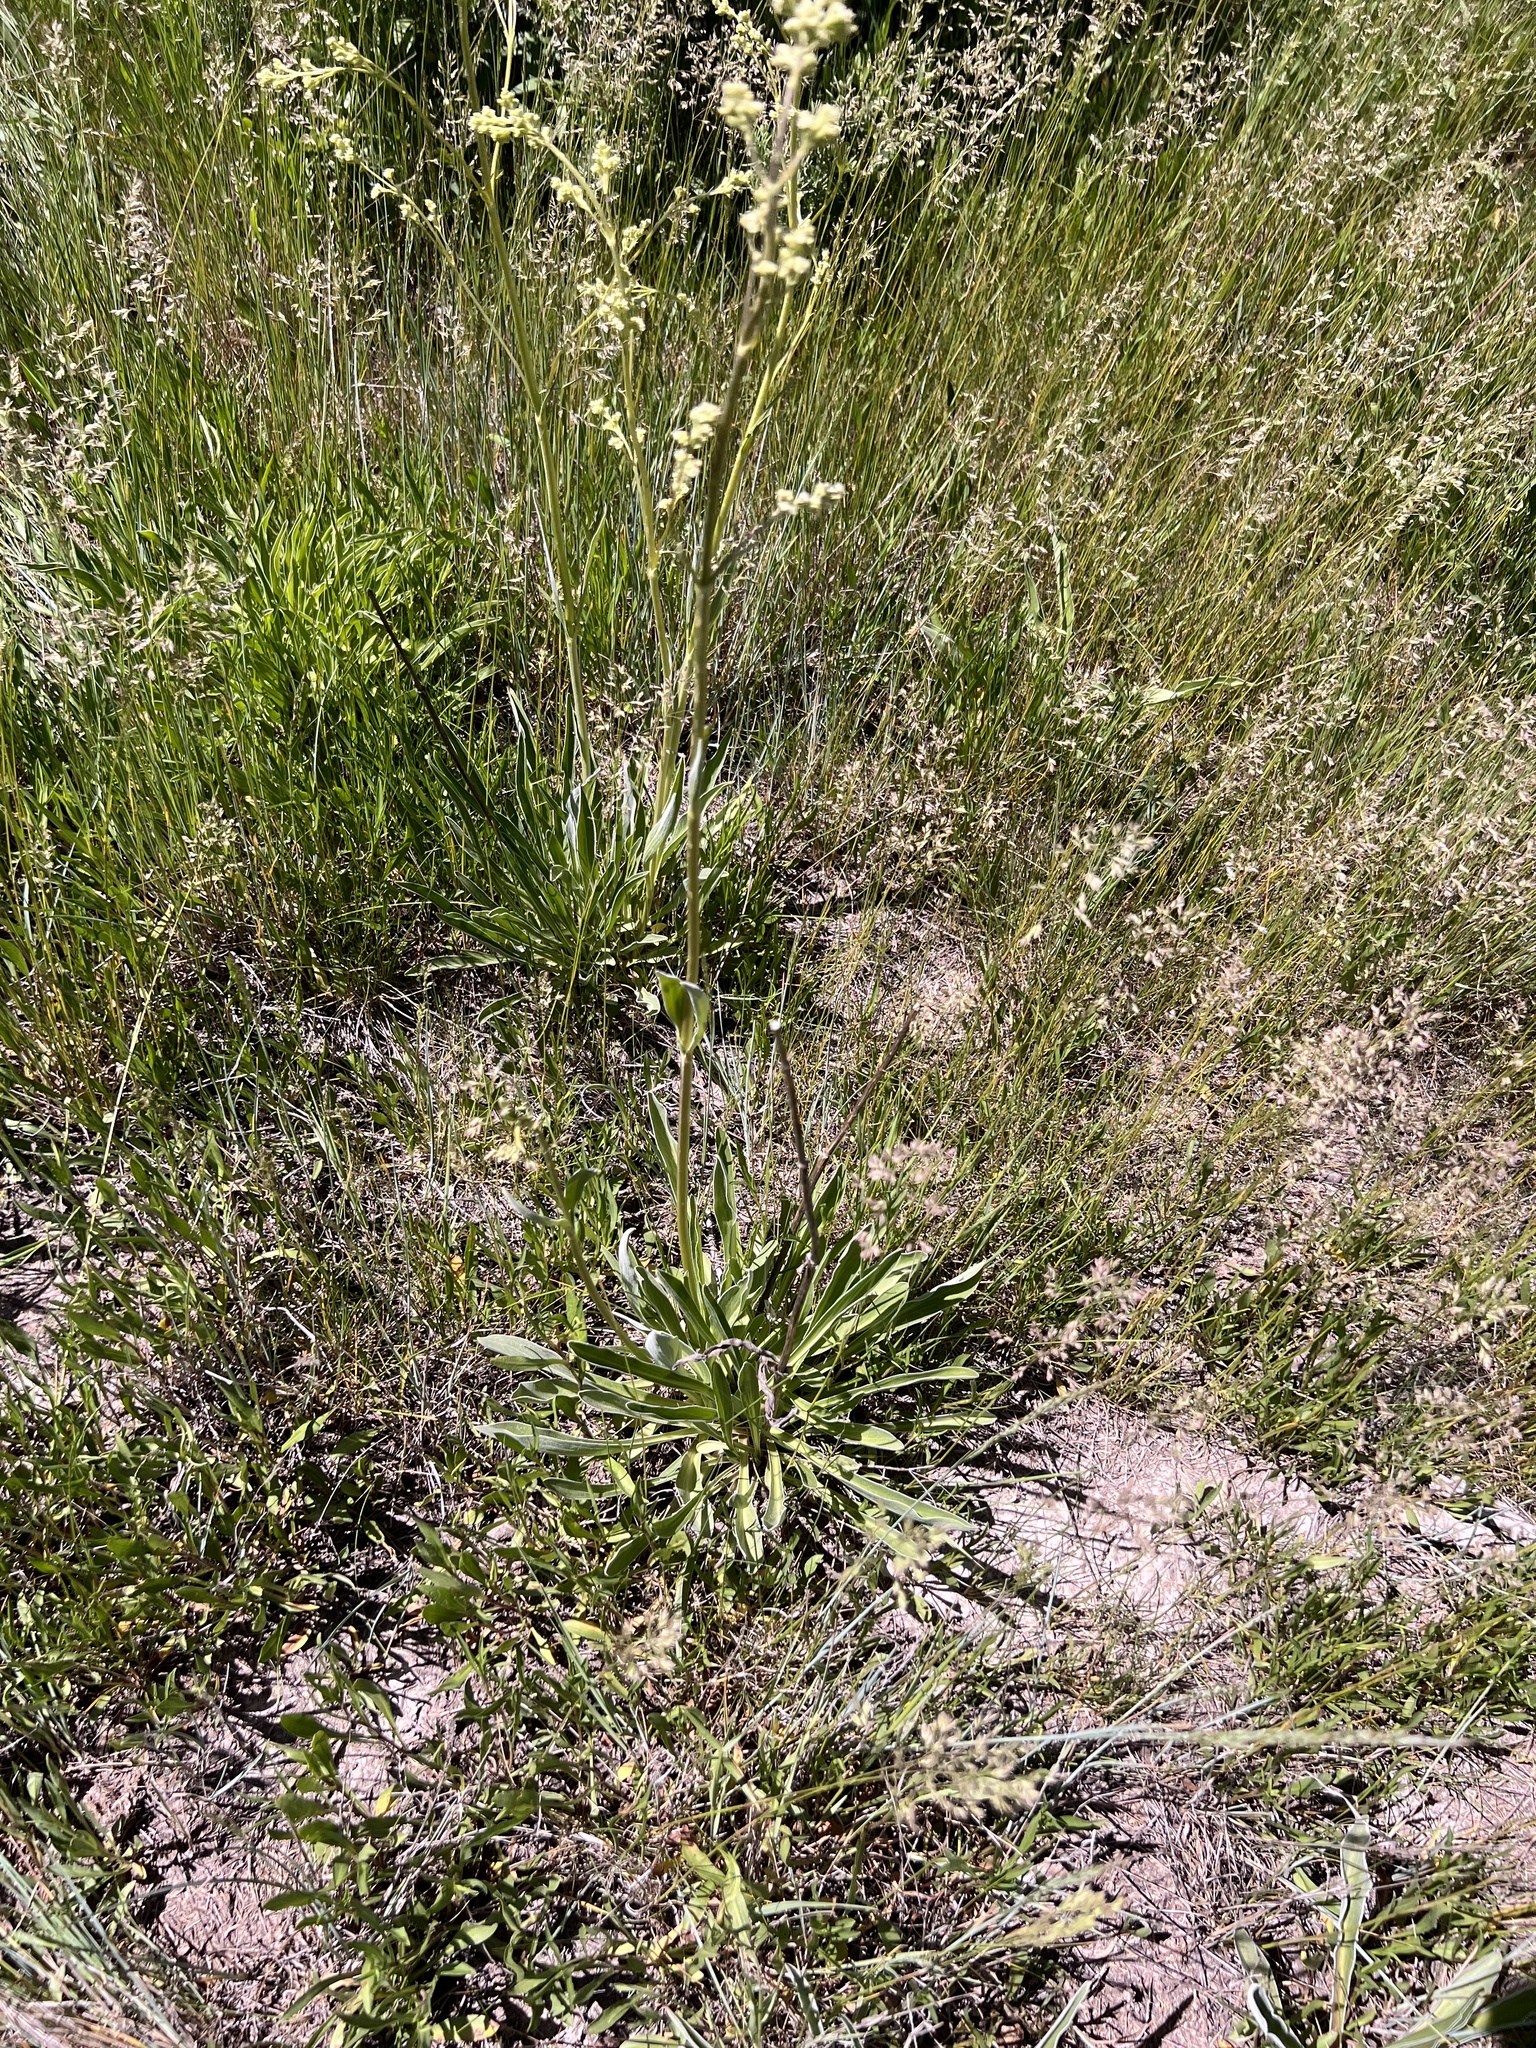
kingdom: Plantae
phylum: Tracheophyta
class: Magnoliopsida
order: Dipsacales
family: Caprifoliaceae
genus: Valeriana
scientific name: Valeriana edulis
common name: Taproot valerian
